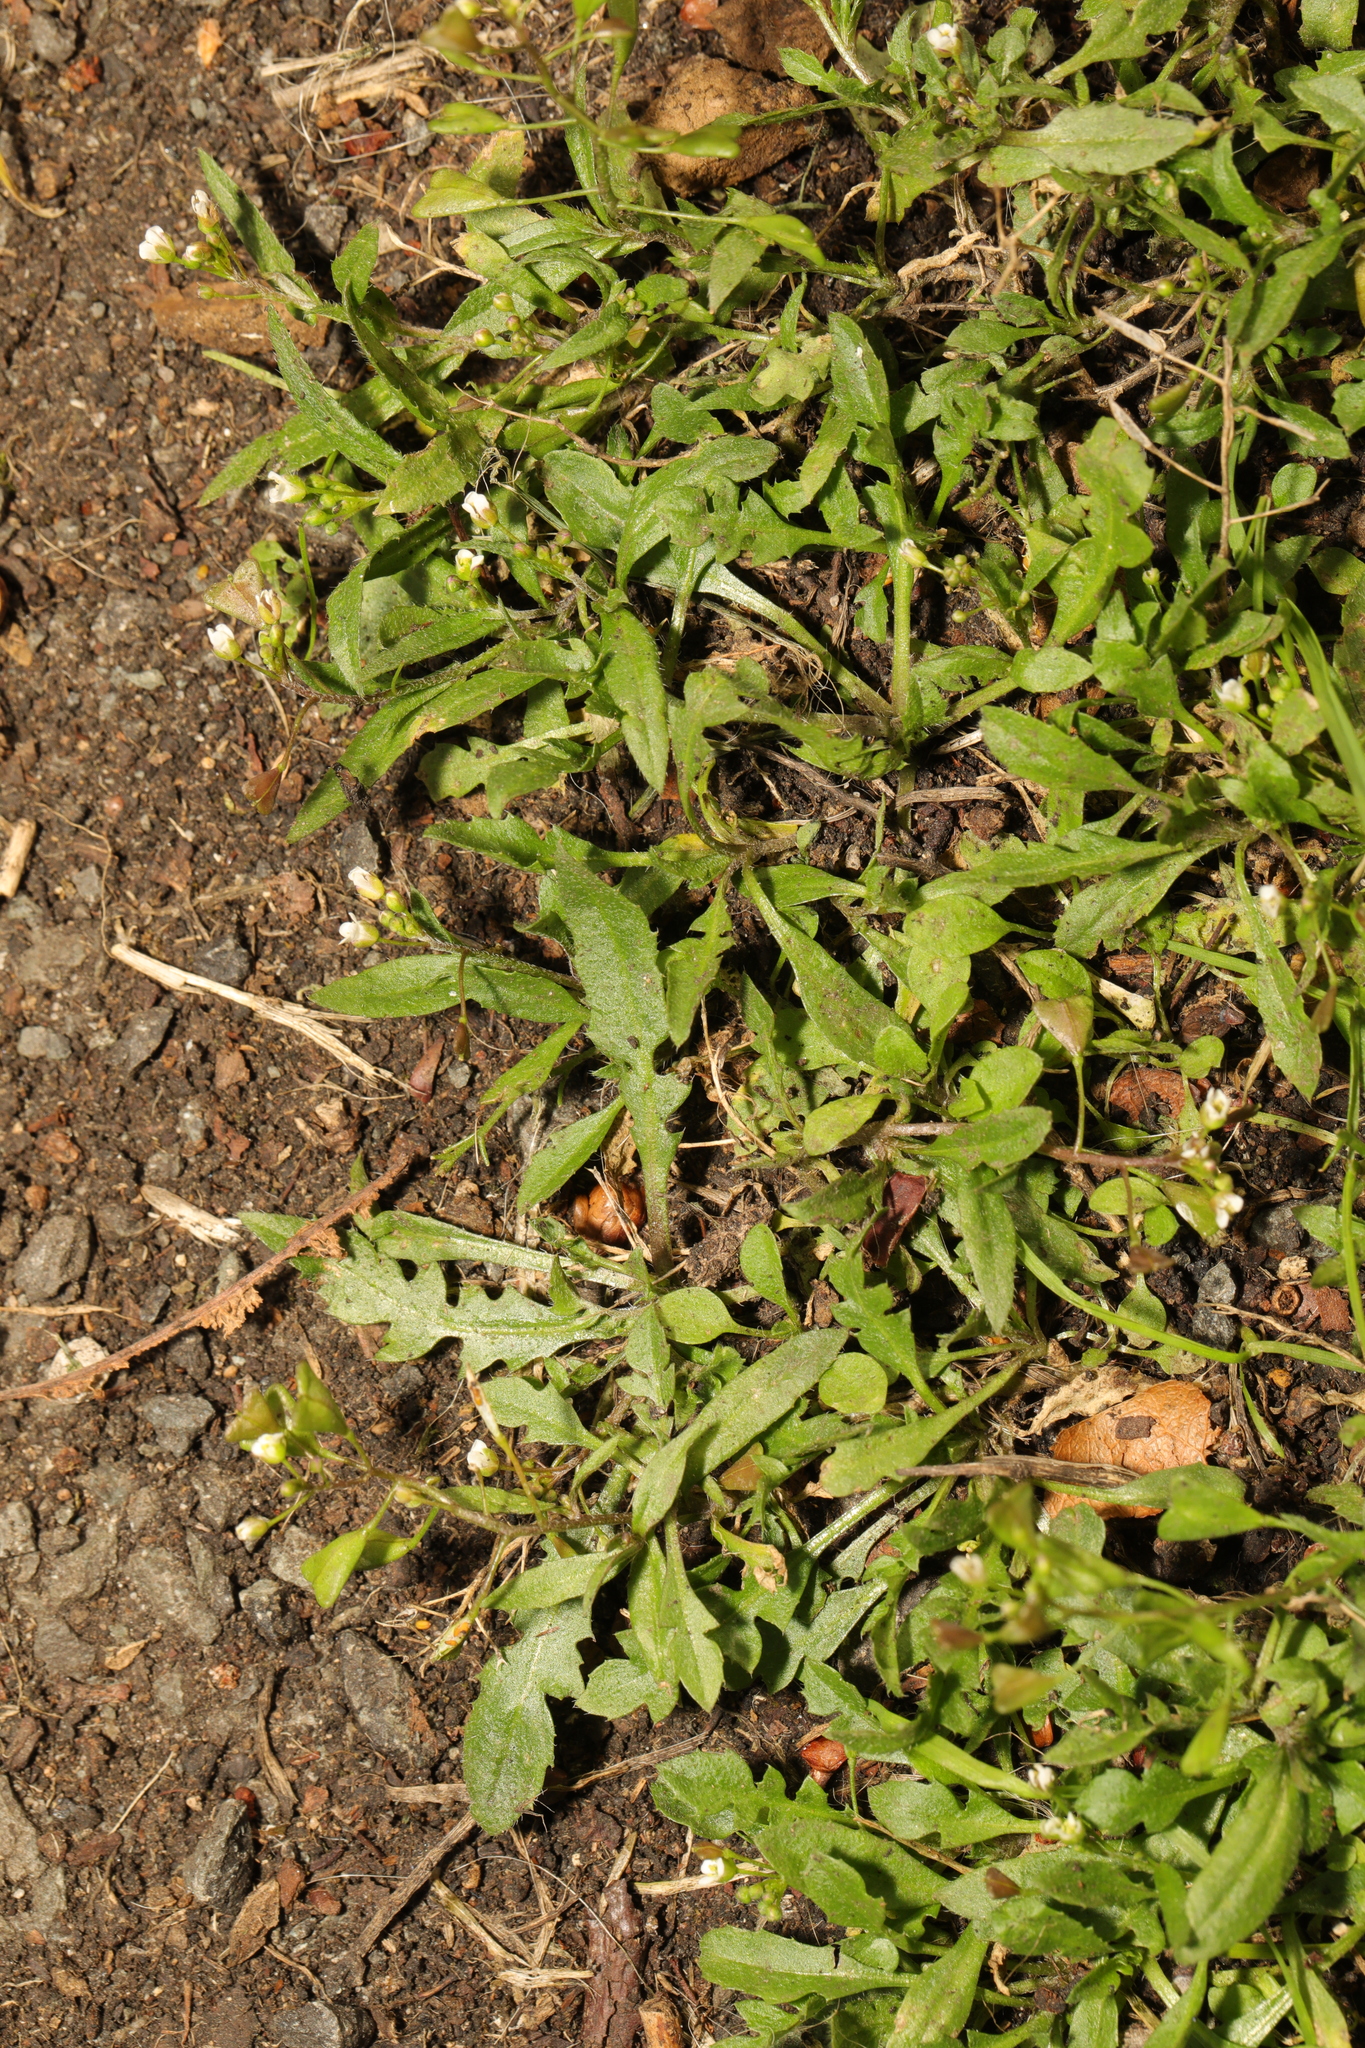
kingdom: Plantae
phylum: Tracheophyta
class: Magnoliopsida
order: Brassicales
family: Brassicaceae
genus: Capsella
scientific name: Capsella bursa-pastoris
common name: Shepherd's purse
